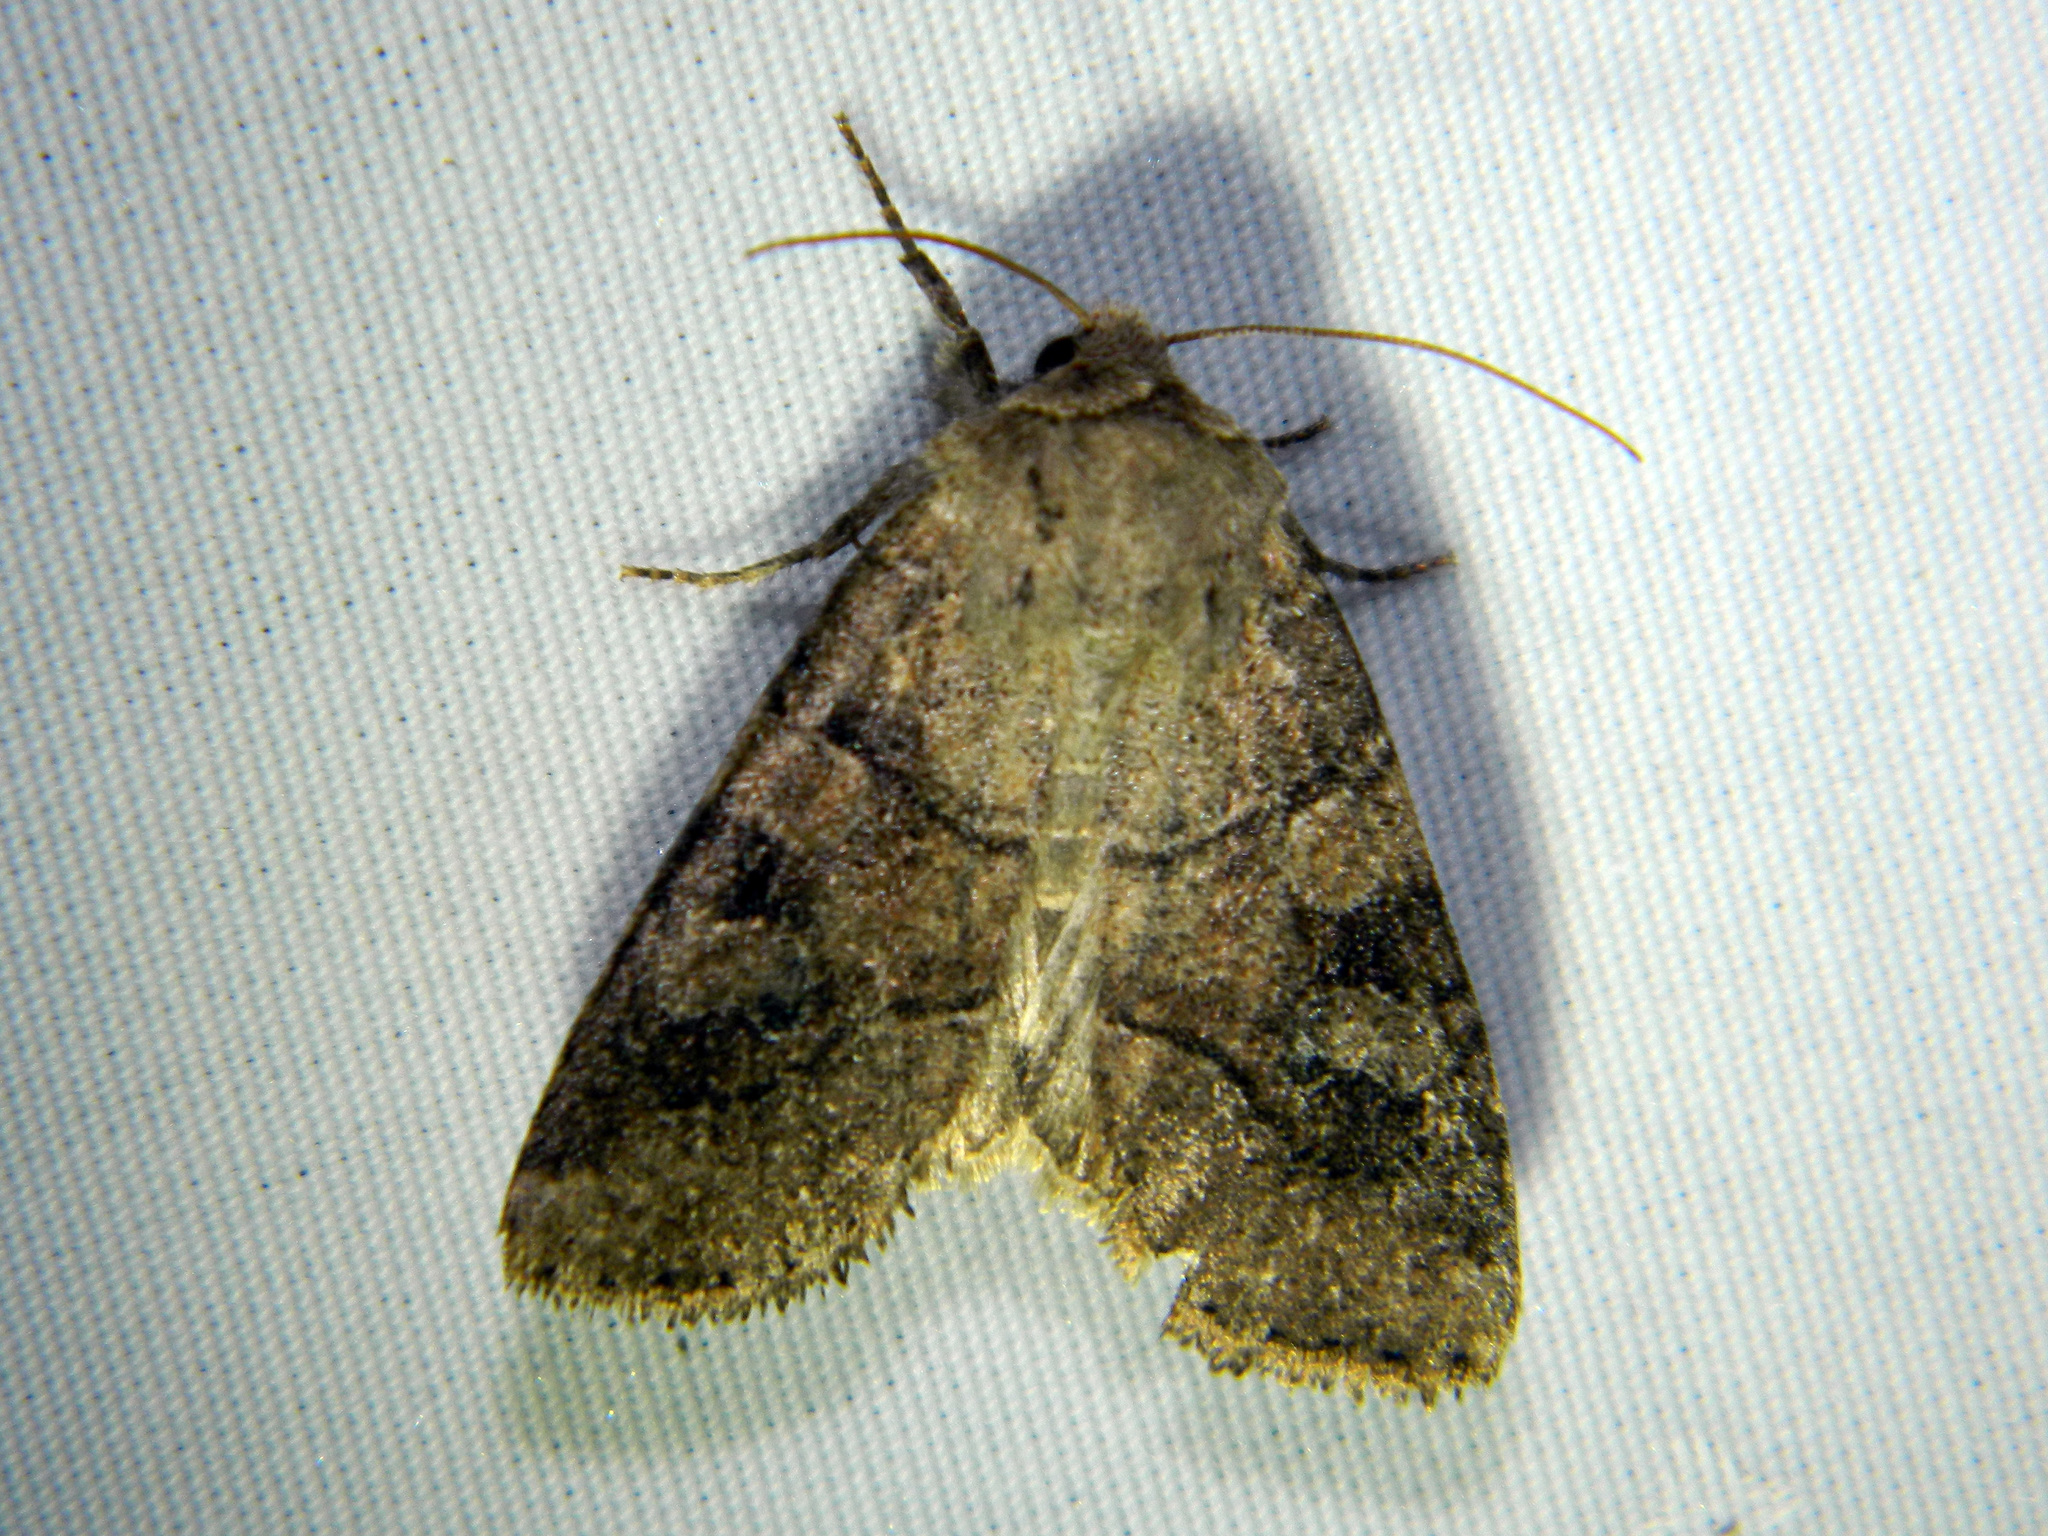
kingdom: Animalia
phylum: Arthropoda
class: Insecta
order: Lepidoptera
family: Noctuidae
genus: Crocigrapha
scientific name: Crocigrapha normani
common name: Norman's quaker
